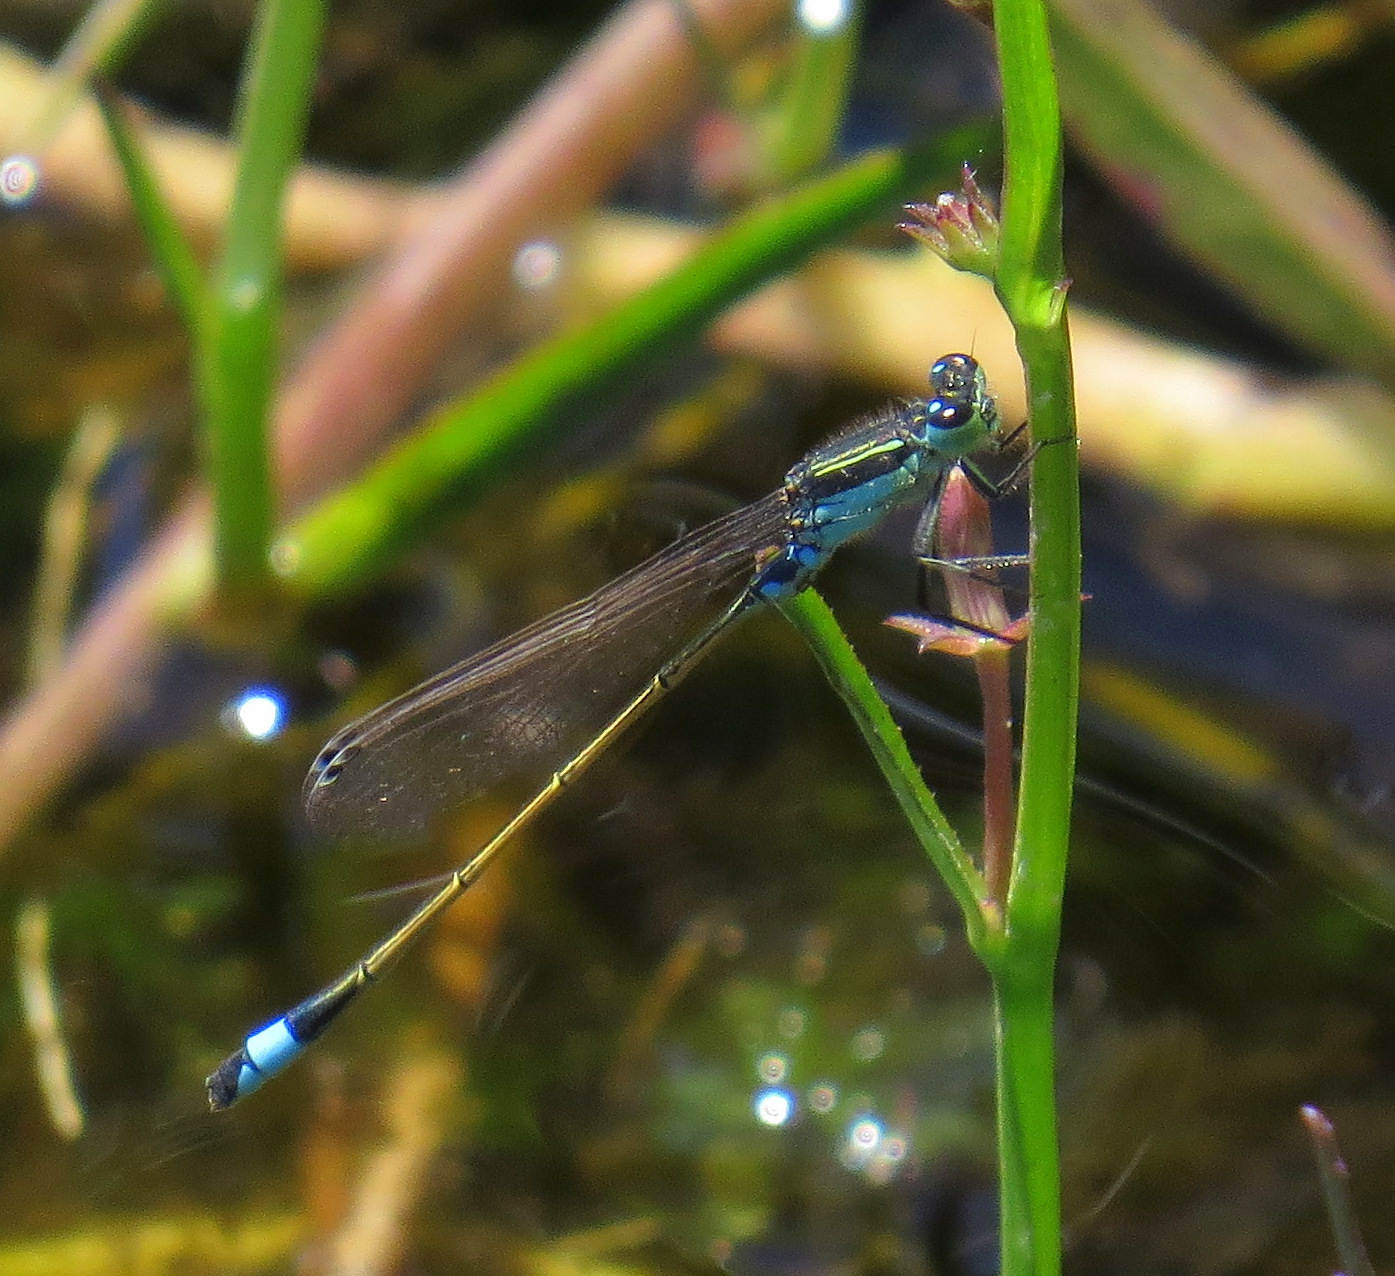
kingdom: Animalia
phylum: Arthropoda
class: Insecta
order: Odonata
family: Coenagrionidae
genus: Ischnura
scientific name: Ischnura senegalensis
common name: Tropical bluetail
